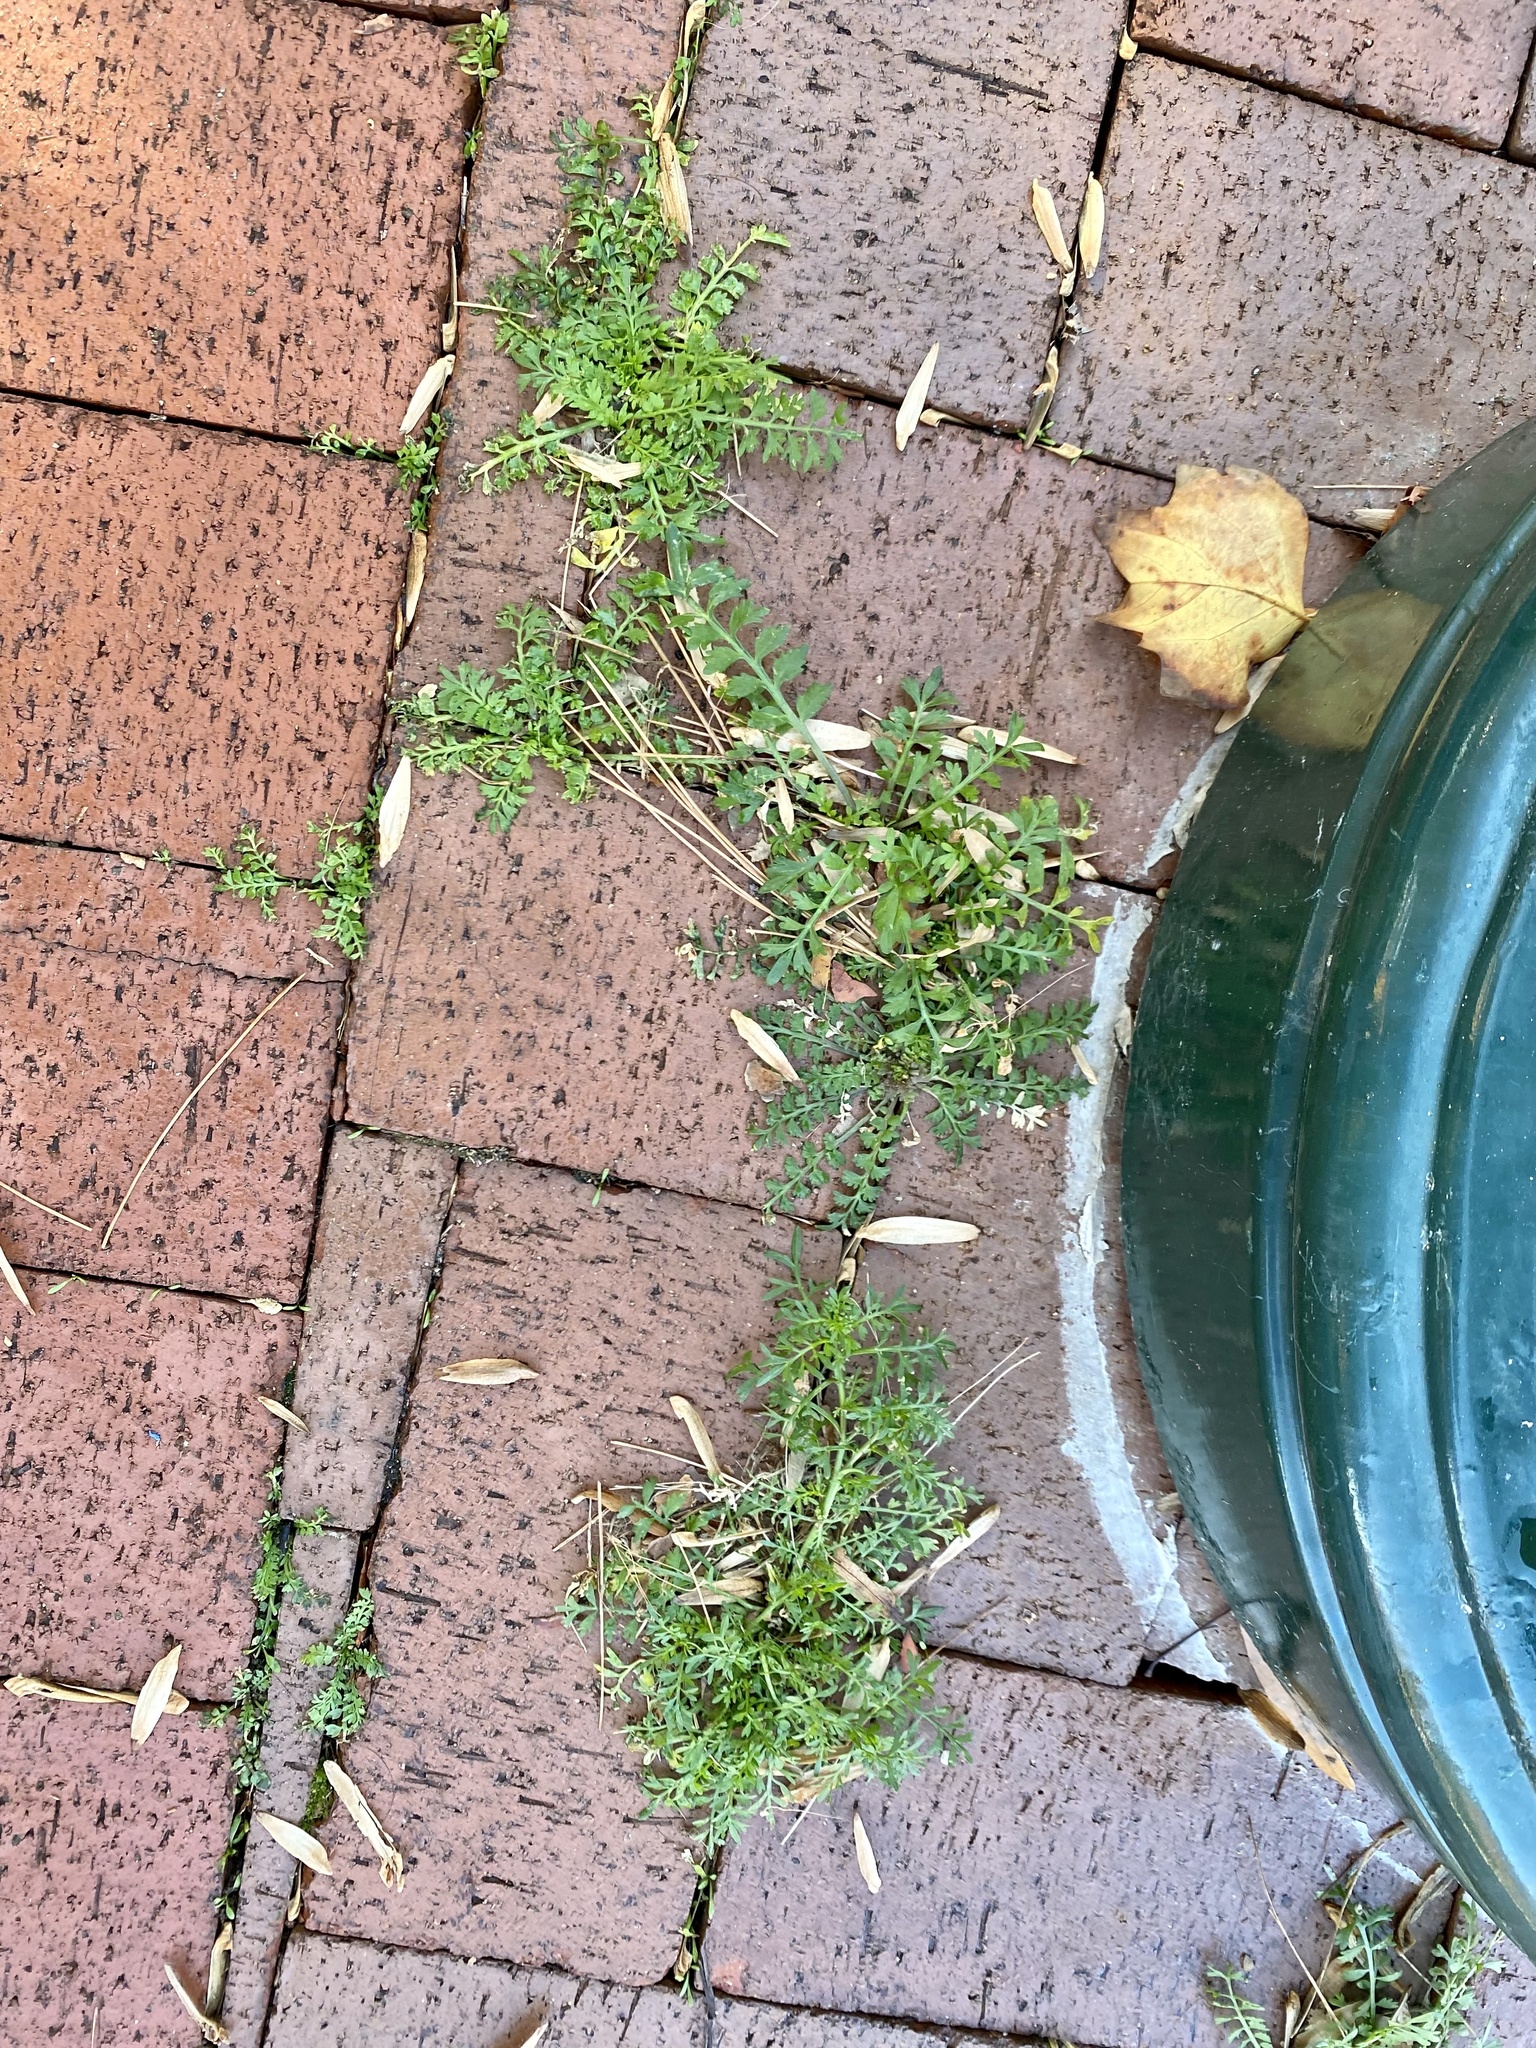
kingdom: Plantae
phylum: Tracheophyta
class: Magnoliopsida
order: Brassicales
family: Brassicaceae
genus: Lepidium
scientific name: Lepidium didymum
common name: Lesser swinecress
